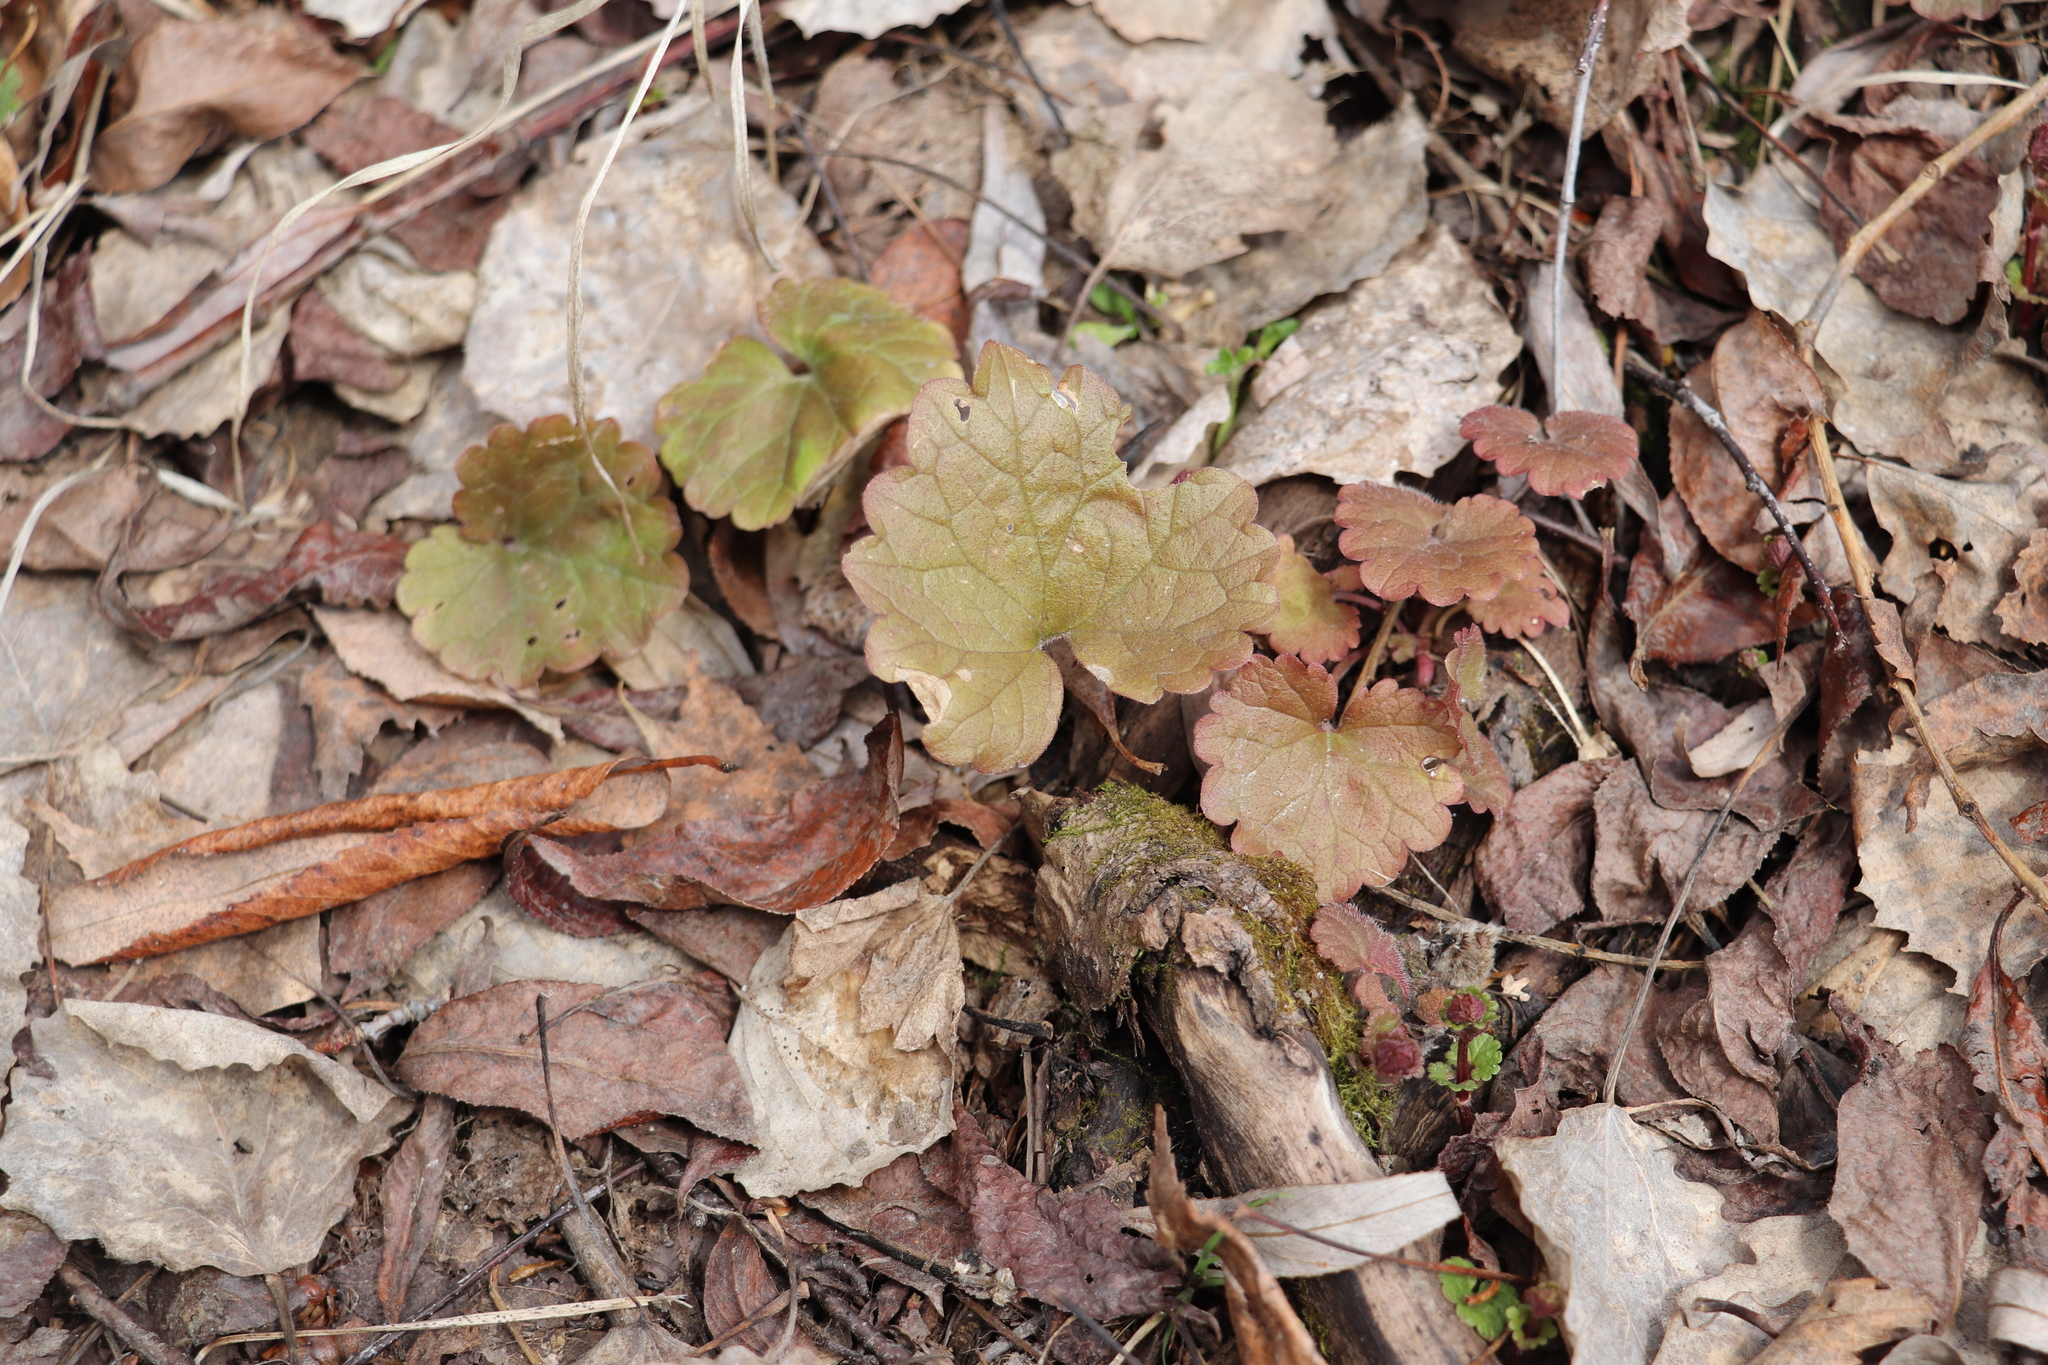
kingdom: Plantae
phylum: Tracheophyta
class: Magnoliopsida
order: Lamiales
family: Lamiaceae
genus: Glechoma
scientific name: Glechoma hederacea
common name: Ground ivy
